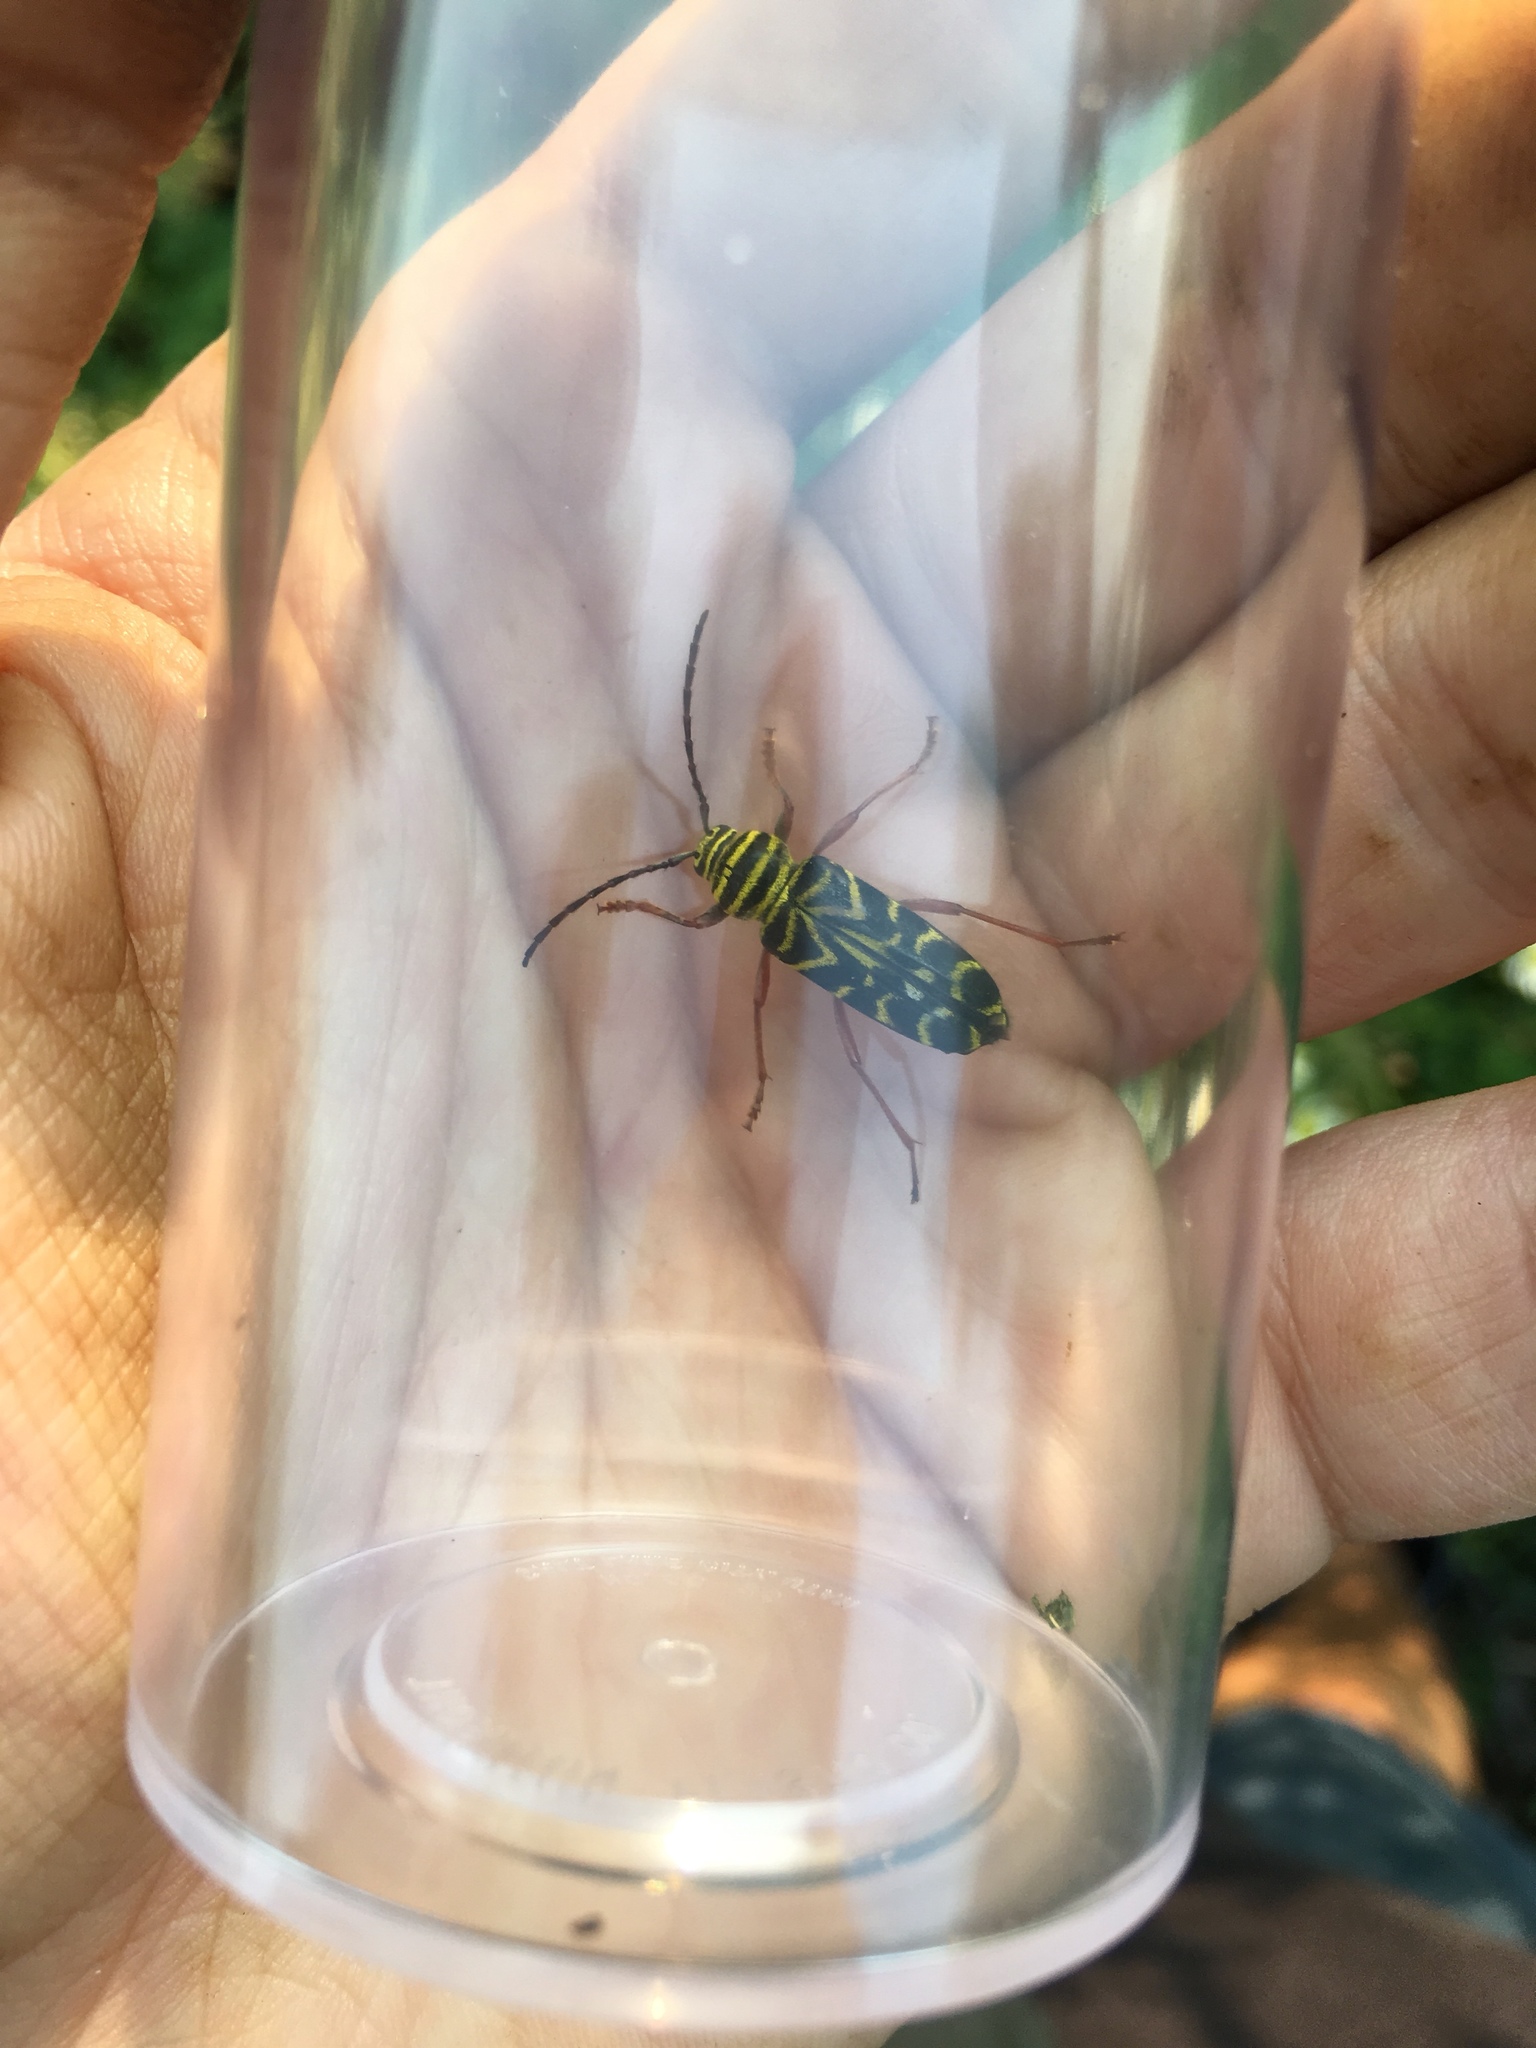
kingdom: Animalia
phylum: Arthropoda
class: Insecta
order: Coleoptera
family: Cerambycidae
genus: Megacyllene
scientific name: Megacyllene robiniae
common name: Locust borer
